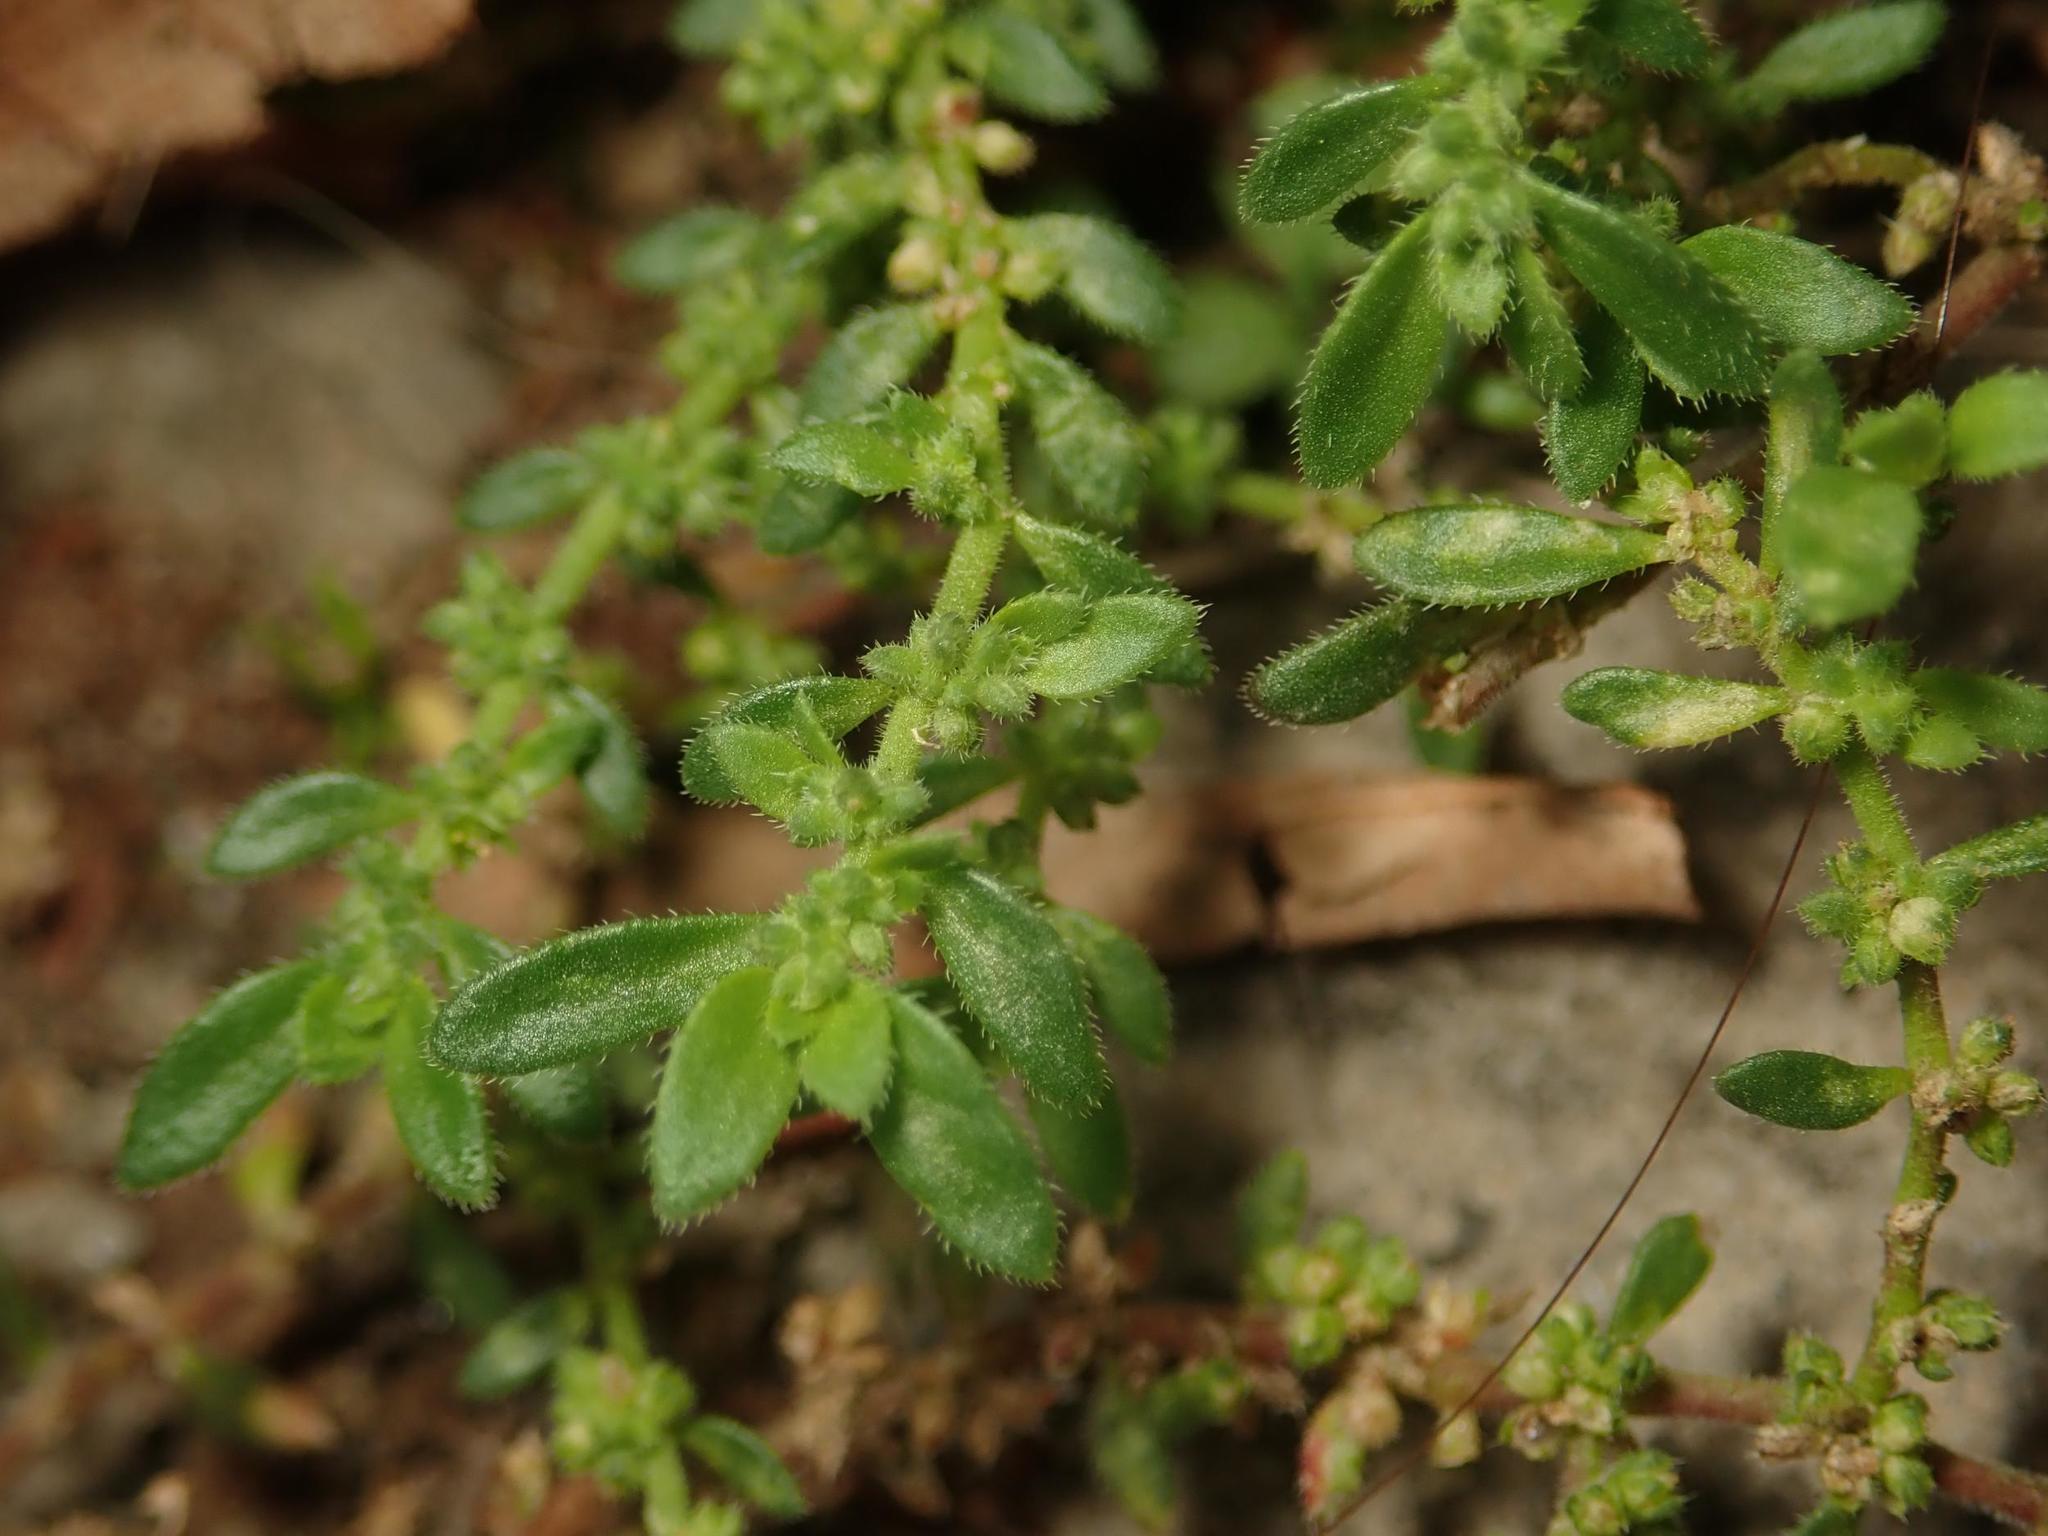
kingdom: Plantae
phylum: Tracheophyta
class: Magnoliopsida
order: Caryophyllales
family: Caryophyllaceae
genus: Herniaria
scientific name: Herniaria hirsuta
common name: Hairy rupturewort
